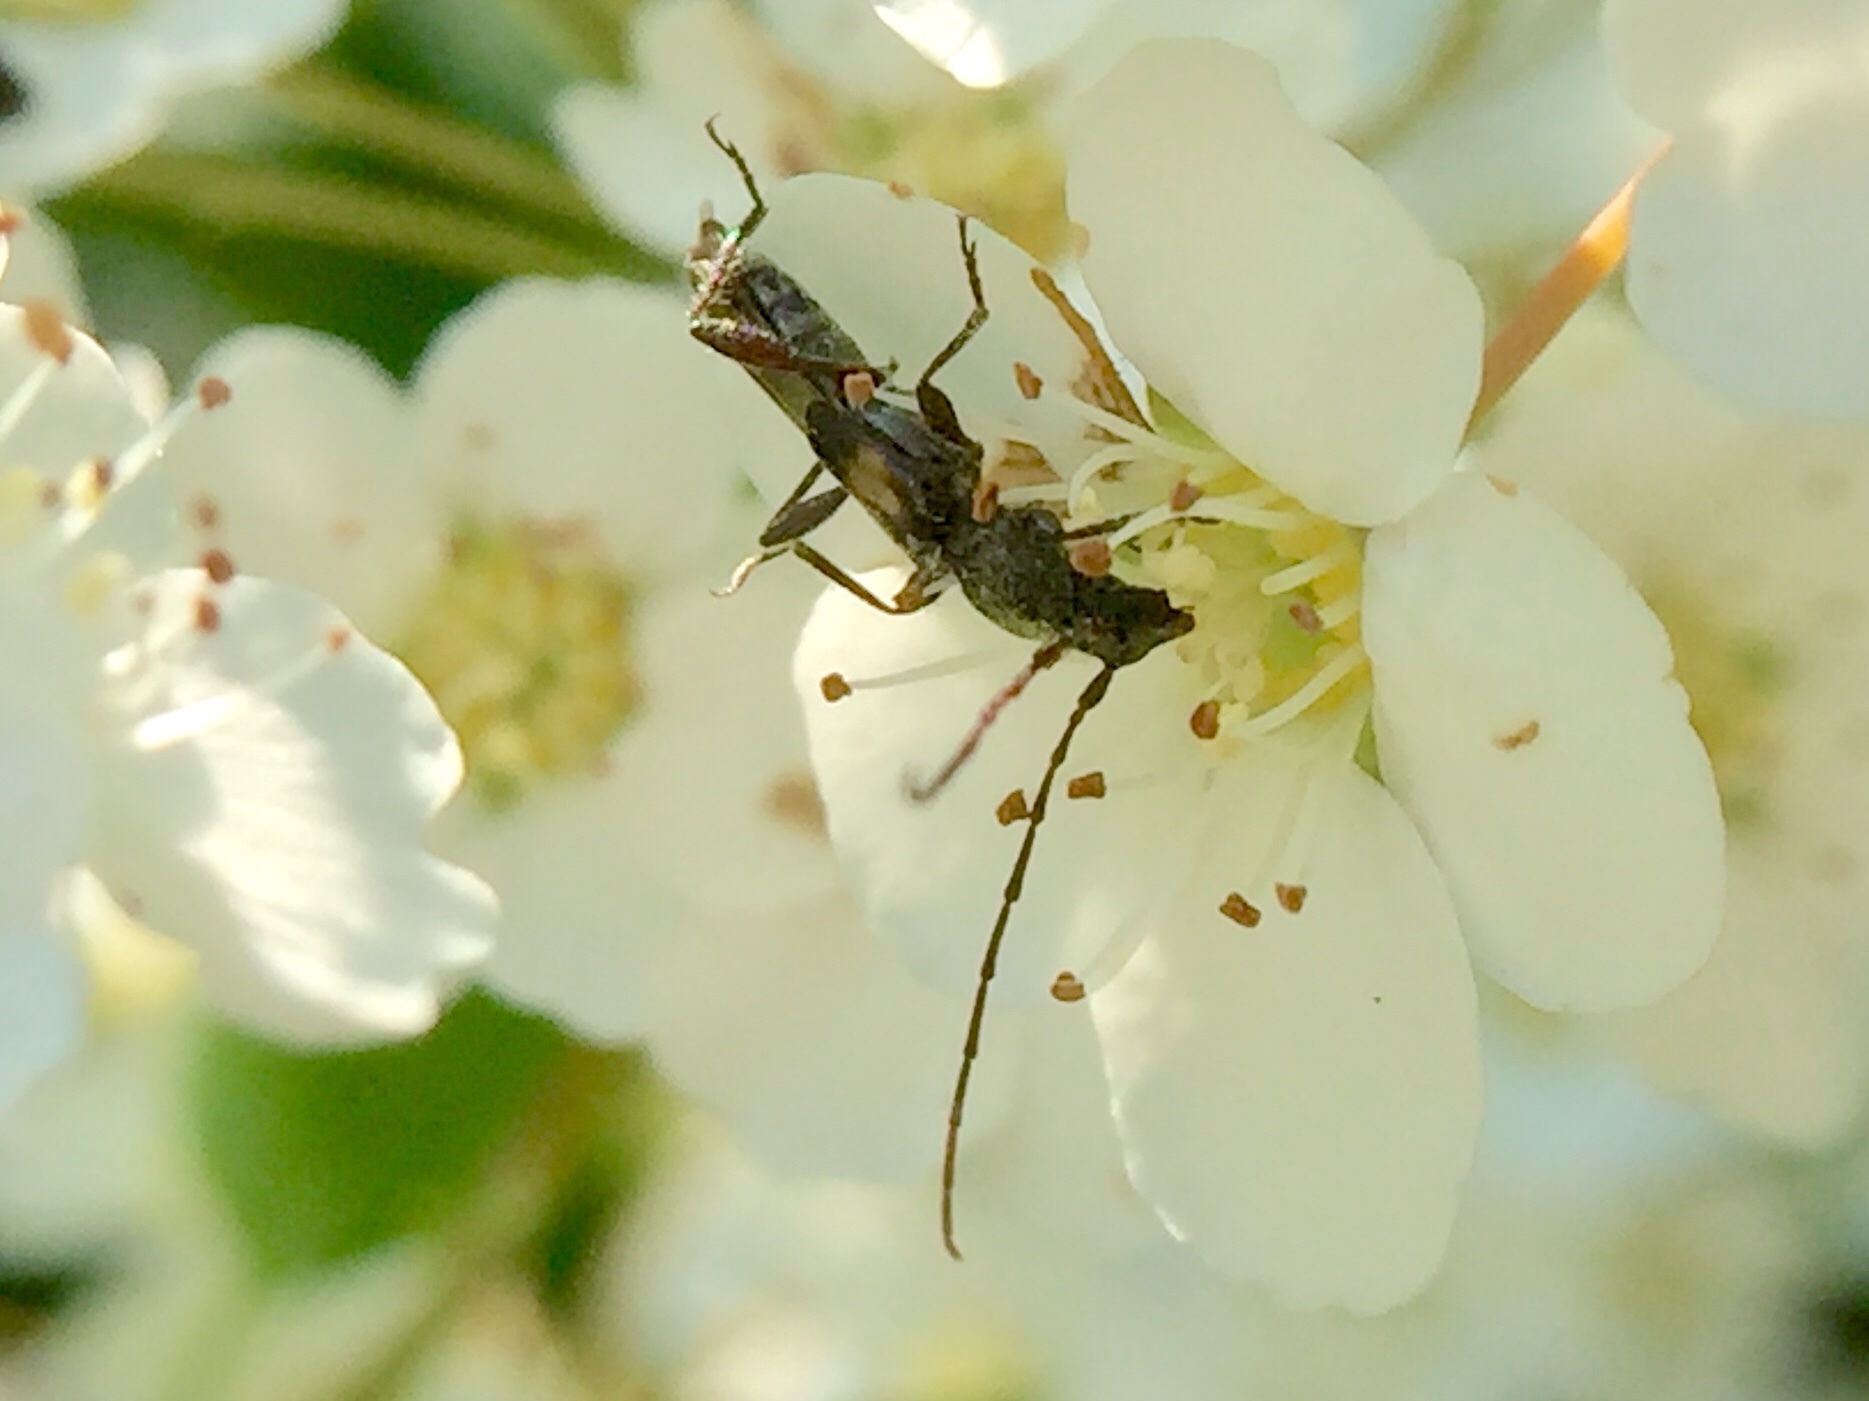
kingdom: Animalia
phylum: Arthropoda
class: Insecta
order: Coleoptera
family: Cerambycidae
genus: Molorchus
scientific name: Molorchus bimaculatus
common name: Bimaculate longhorn beetle
